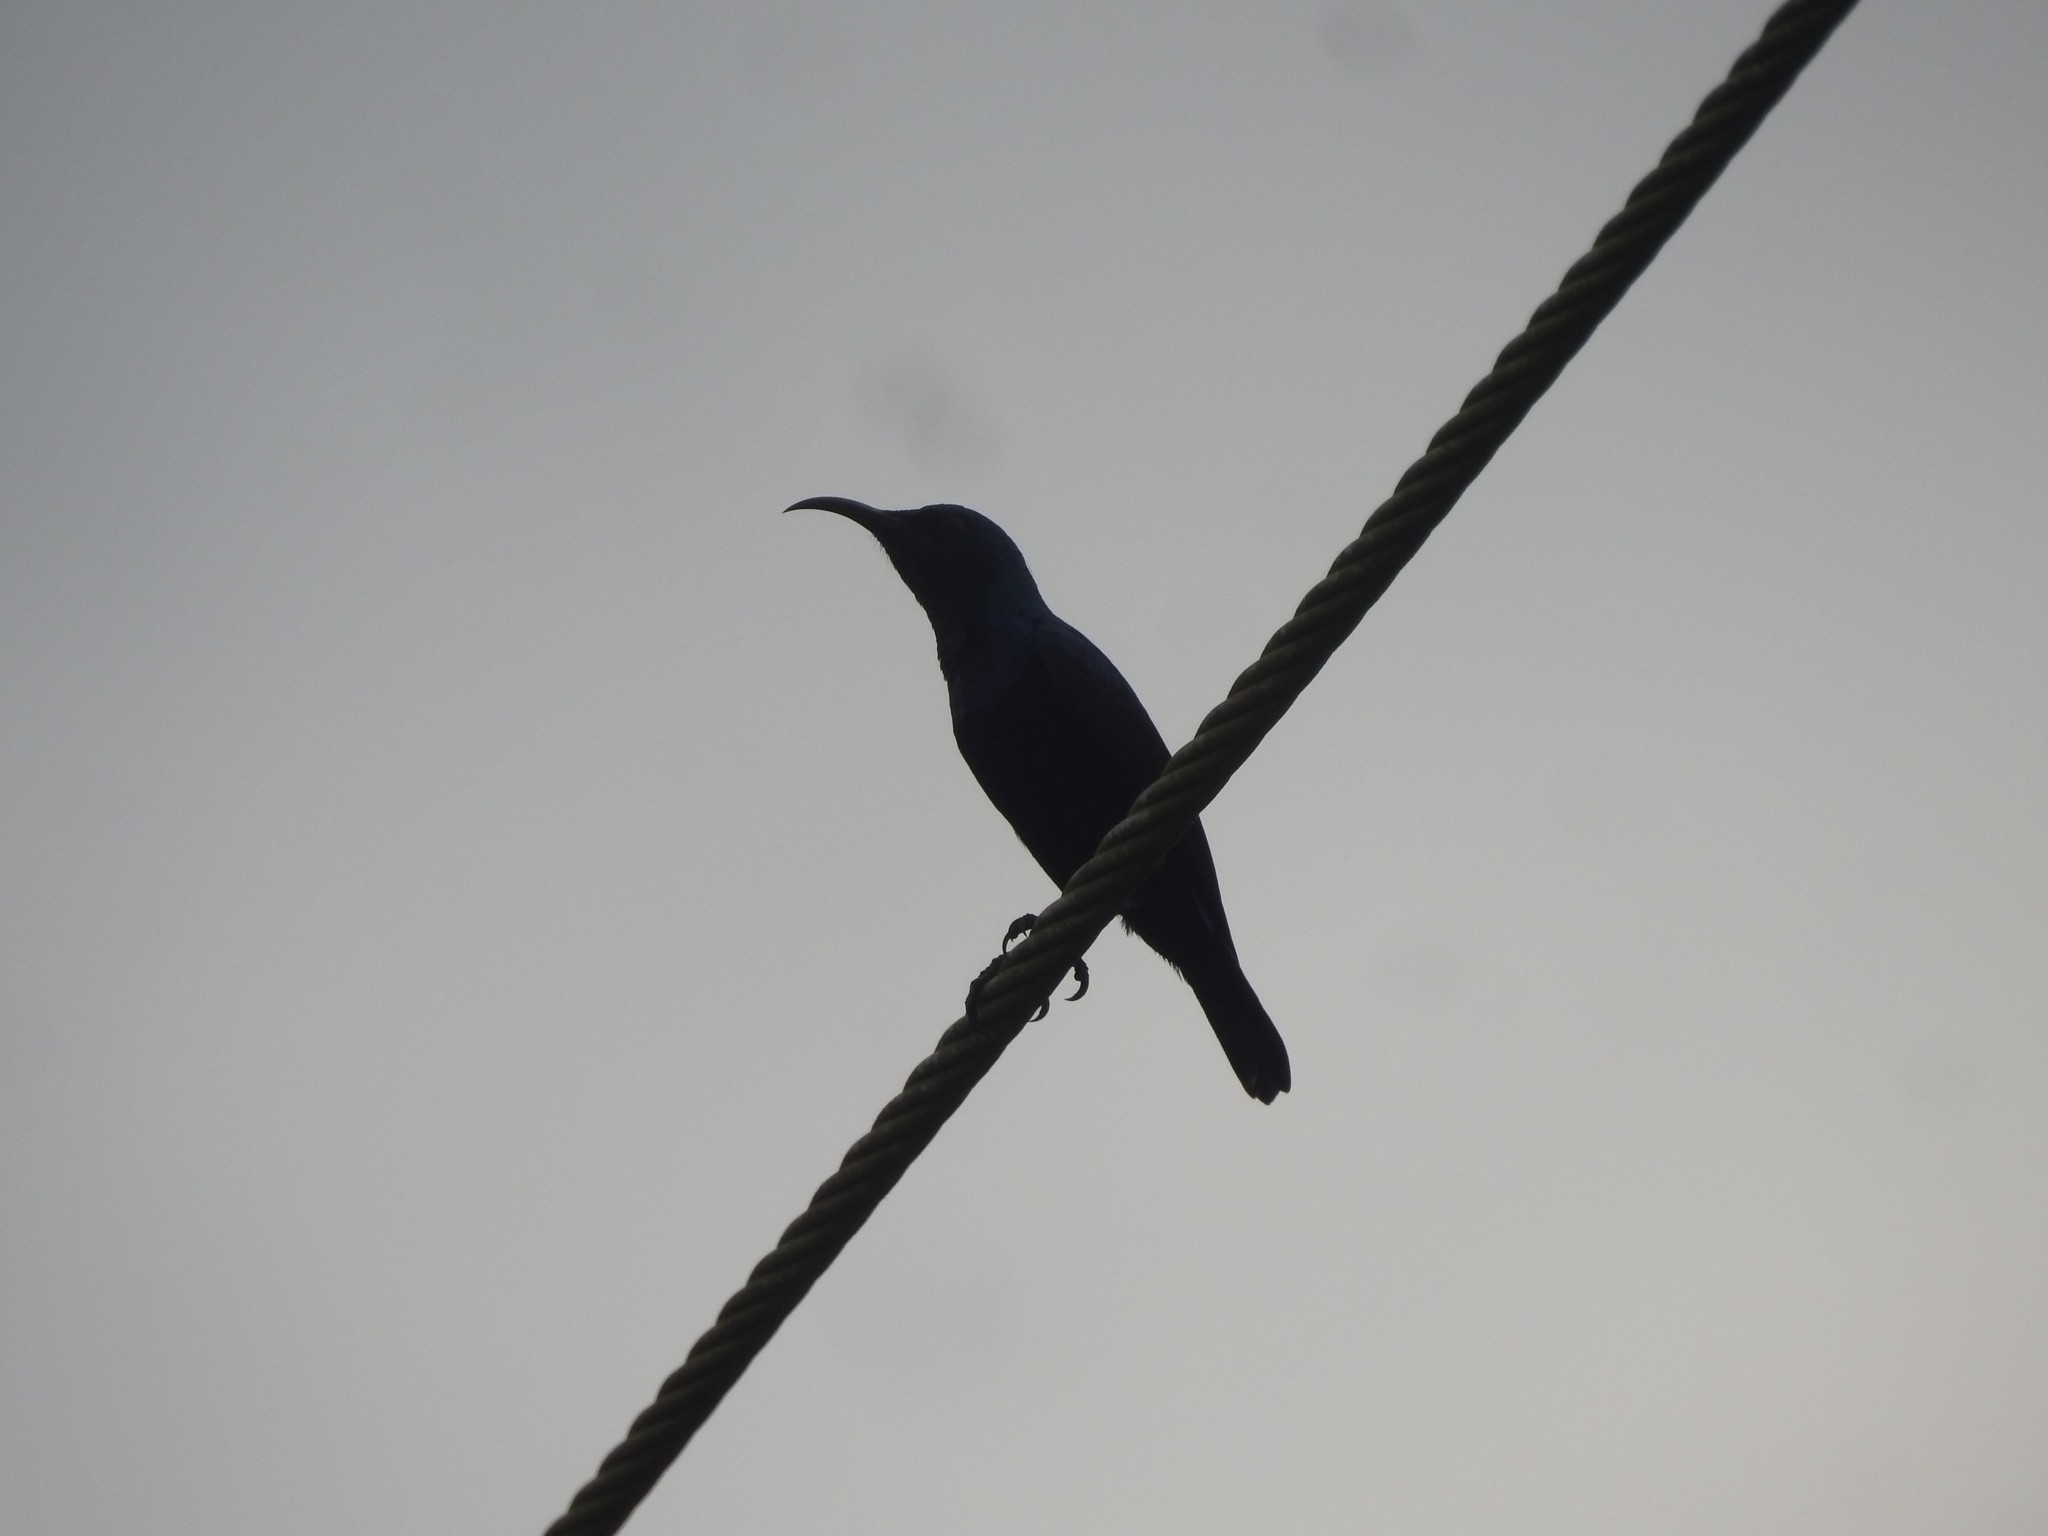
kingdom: Animalia
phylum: Chordata
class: Aves
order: Passeriformes
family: Nectariniidae
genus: Cinnyris
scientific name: Cinnyris asiaticus
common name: Purple sunbird
